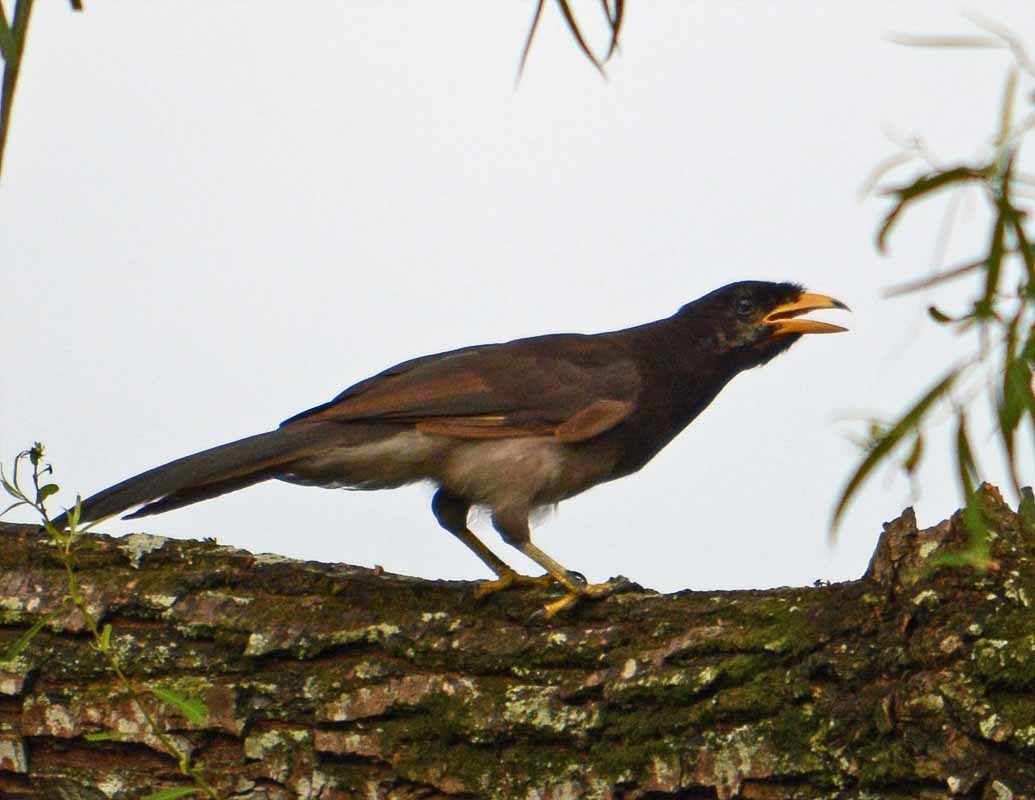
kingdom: Animalia
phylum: Chordata
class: Aves
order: Passeriformes
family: Corvidae
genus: Psilorhinus
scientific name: Psilorhinus morio
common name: Brown jay
